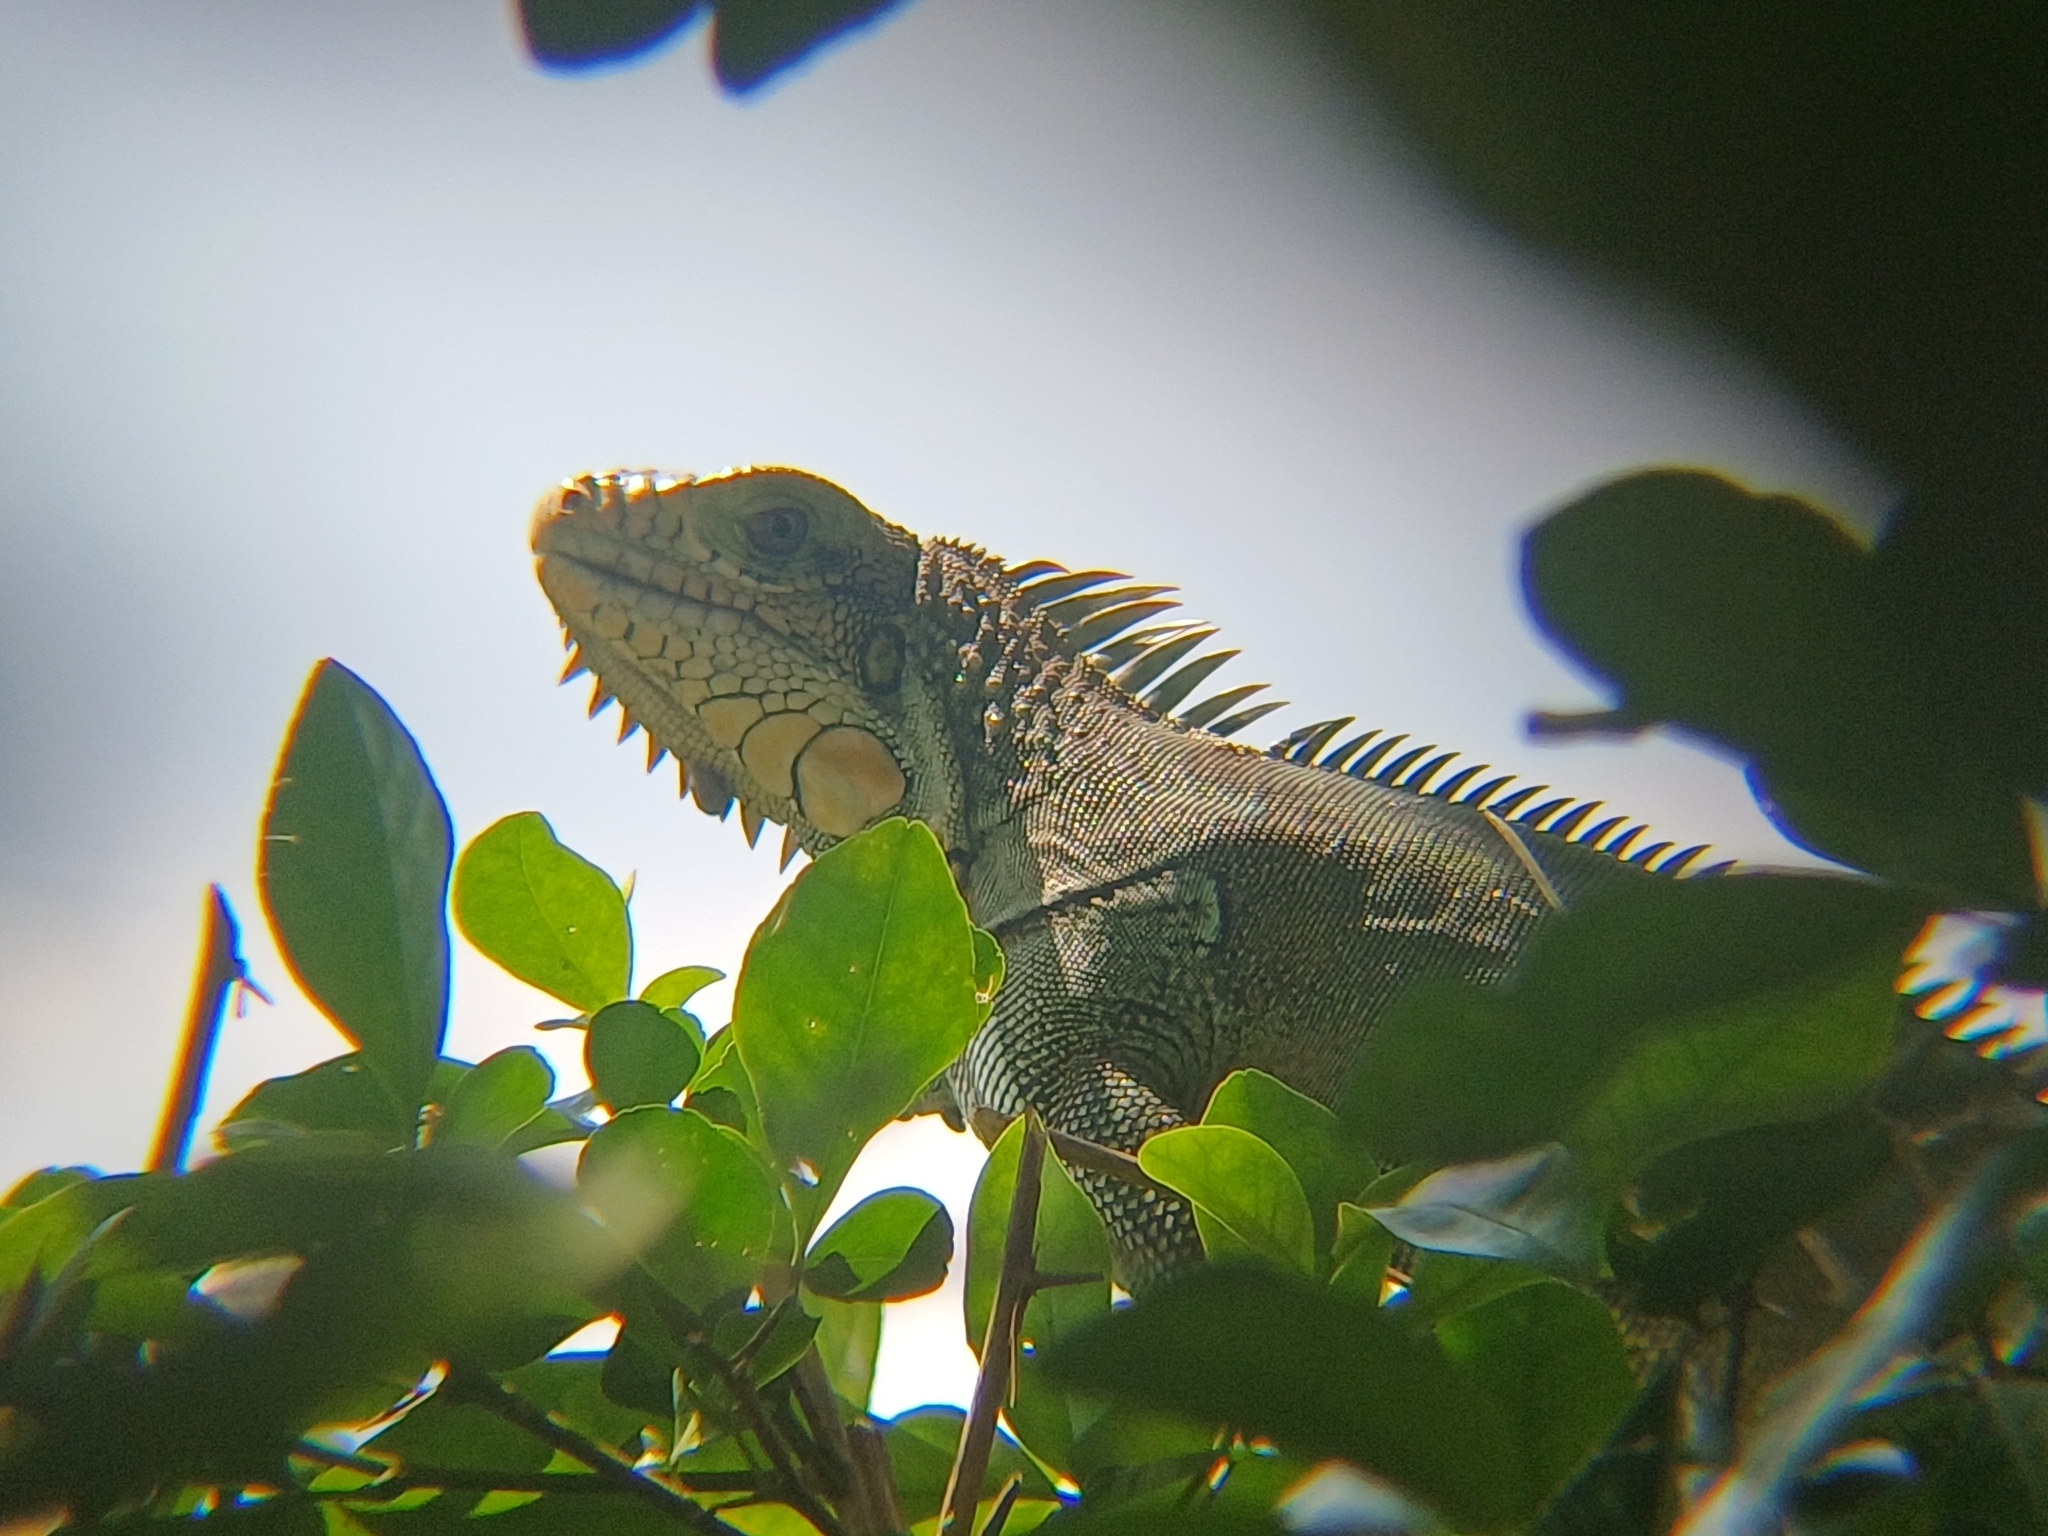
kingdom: Animalia
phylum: Chordata
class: Squamata
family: Iguanidae
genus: Iguana
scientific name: Iguana iguana
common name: Green iguana
